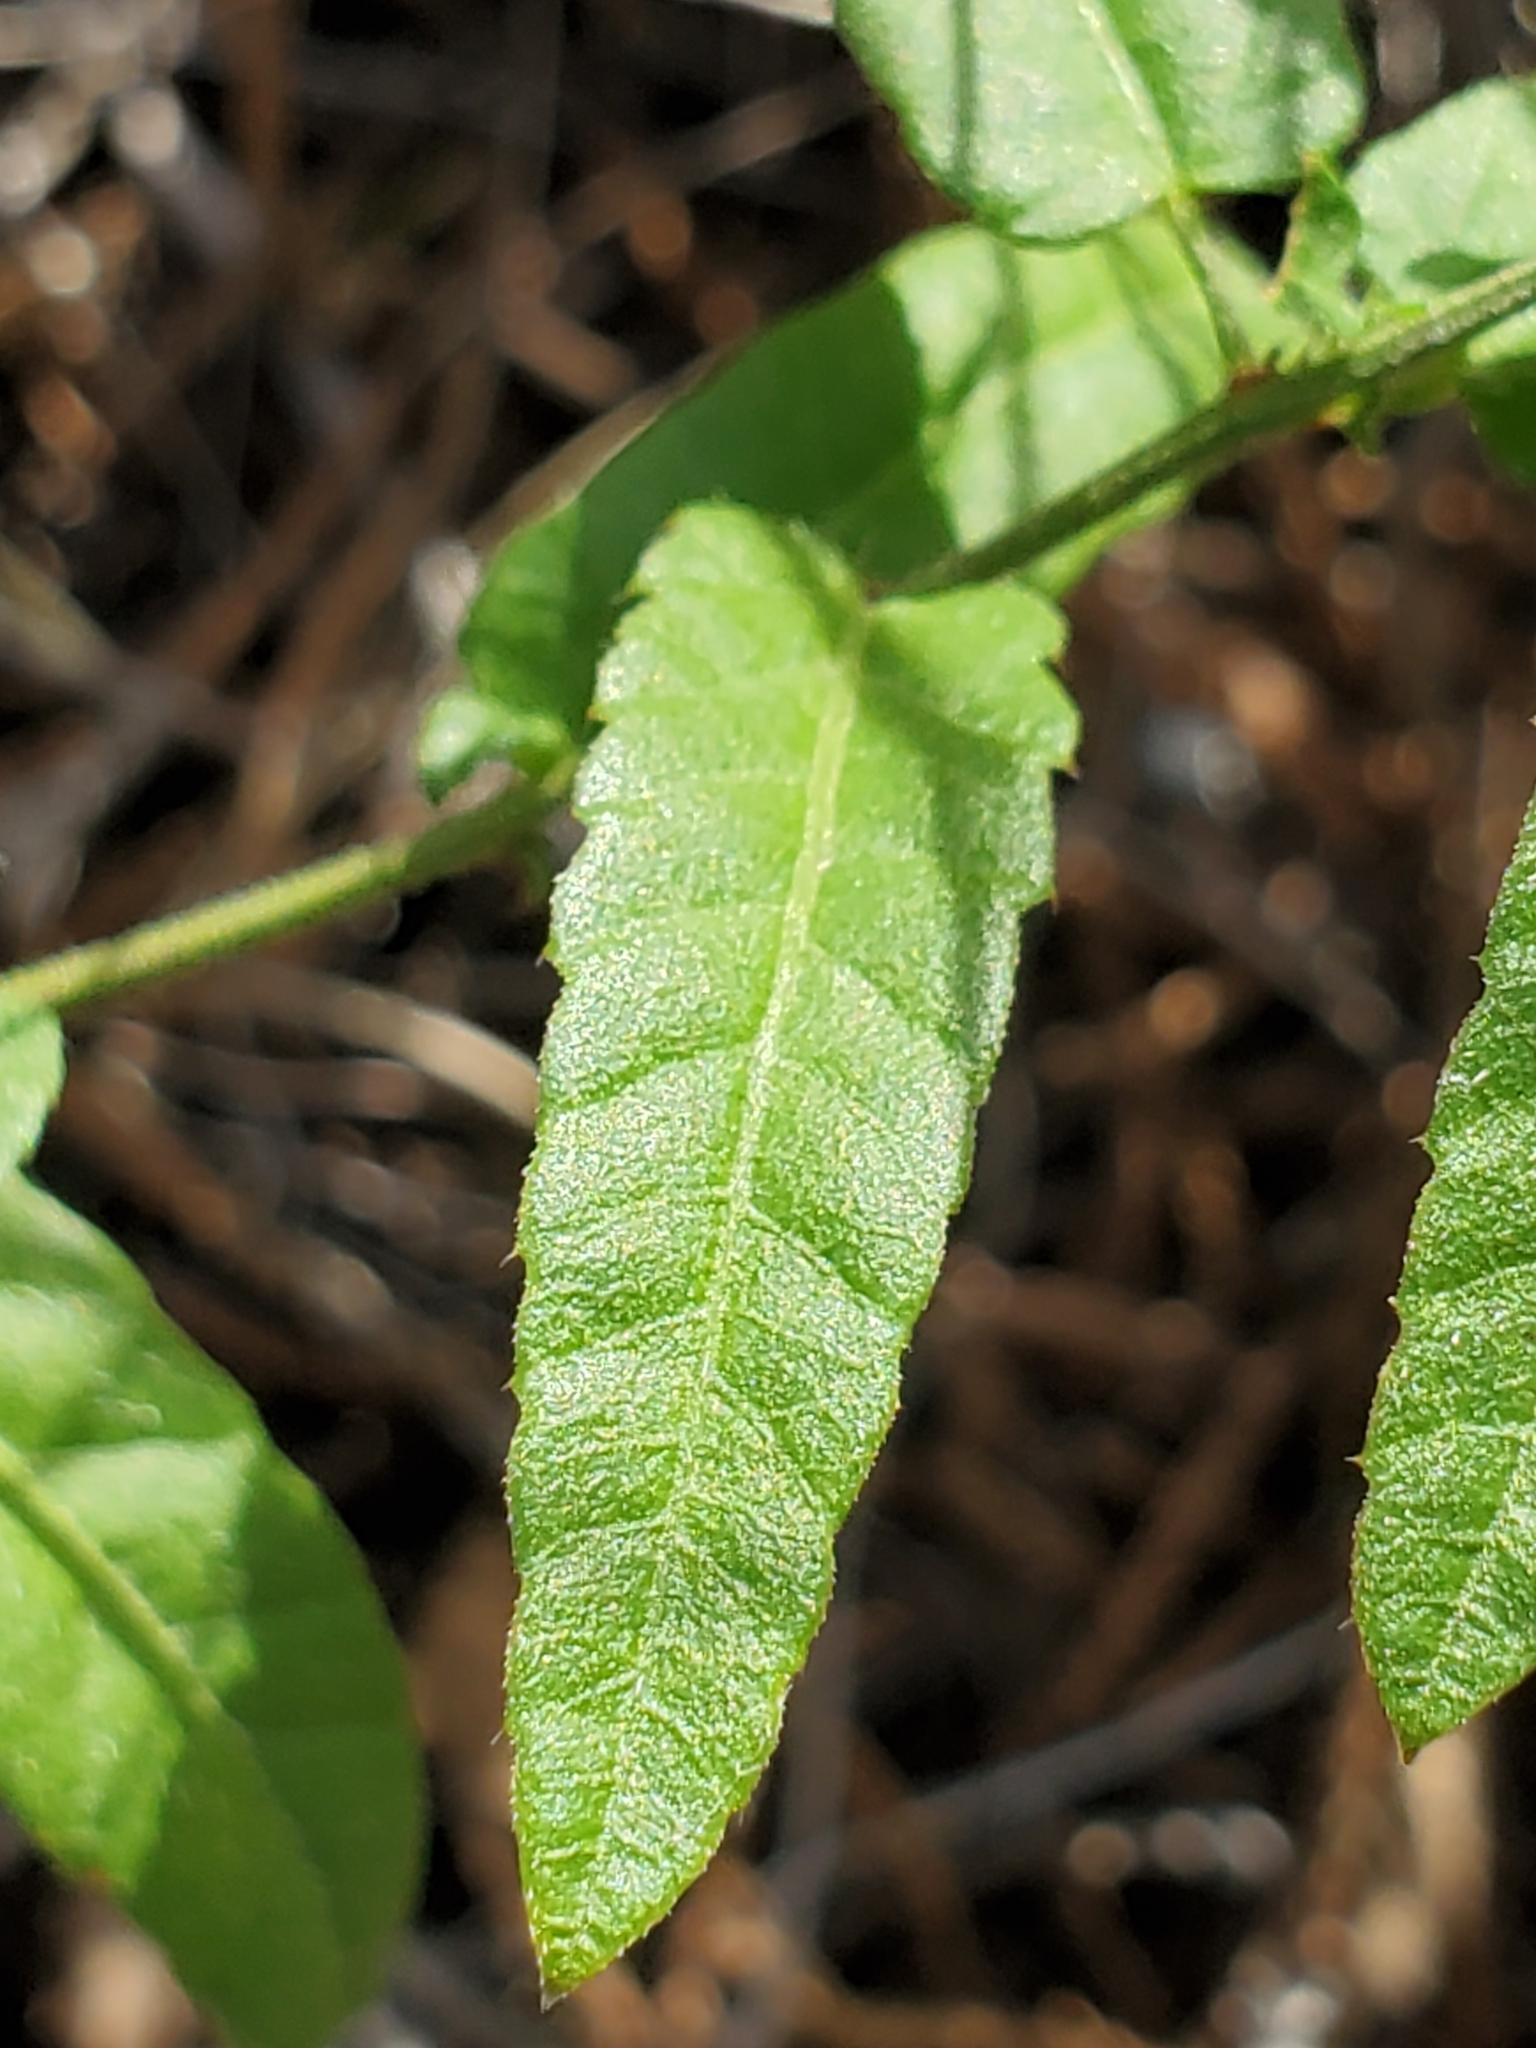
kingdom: Plantae
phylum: Tracheophyta
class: Magnoliopsida
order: Malpighiales
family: Euphorbiaceae
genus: Tragia
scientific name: Tragia ramosa
